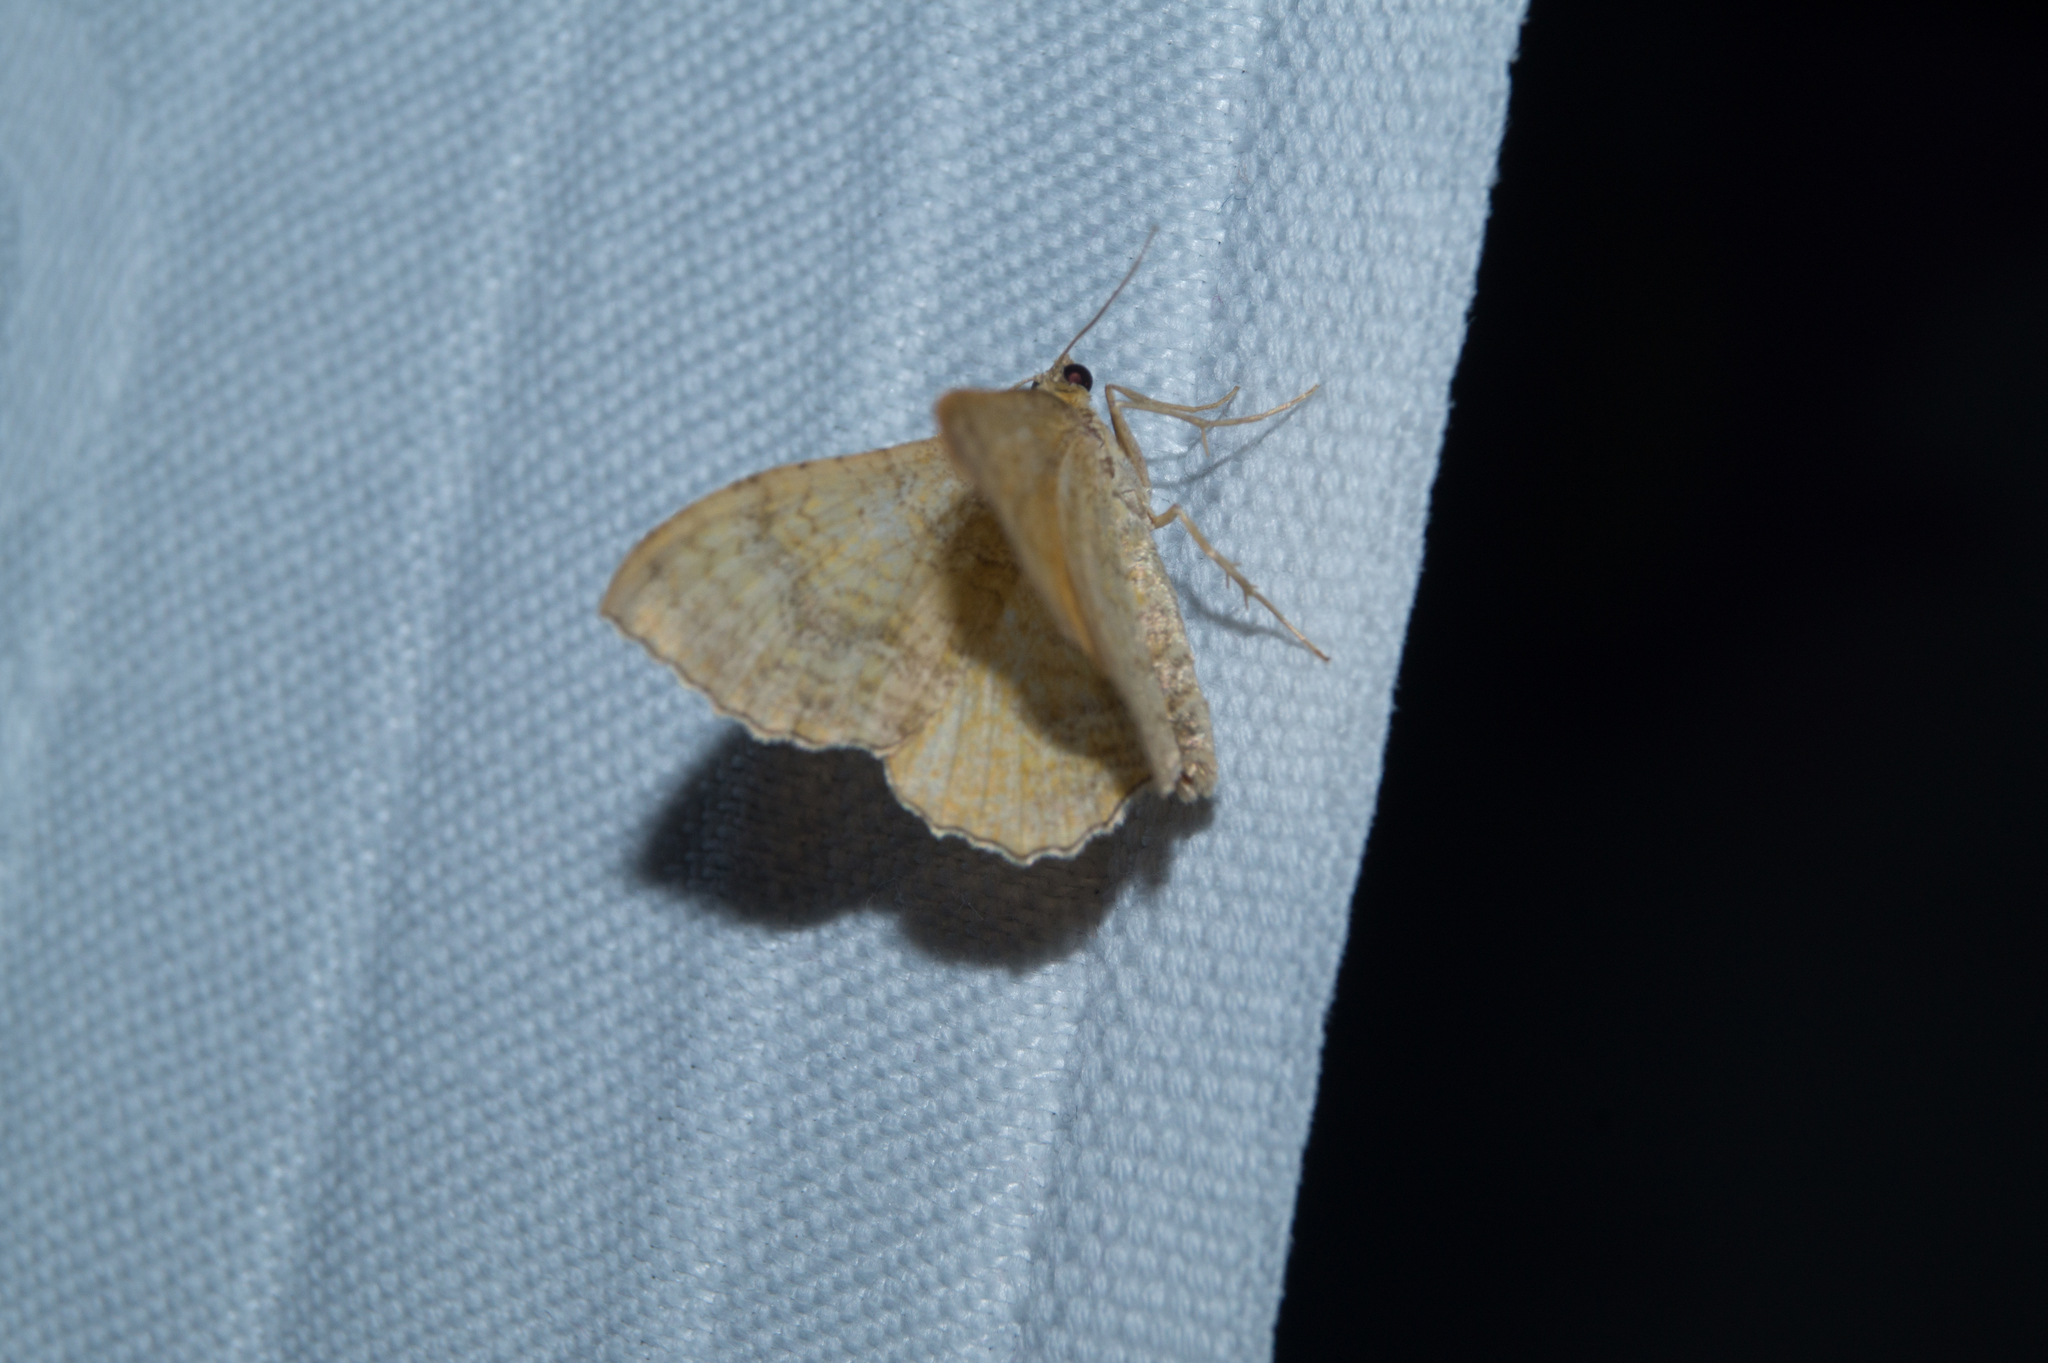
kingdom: Animalia
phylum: Arthropoda
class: Insecta
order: Lepidoptera
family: Geometridae
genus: Camptogramma
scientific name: Camptogramma bilineata
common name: Yellow shell
